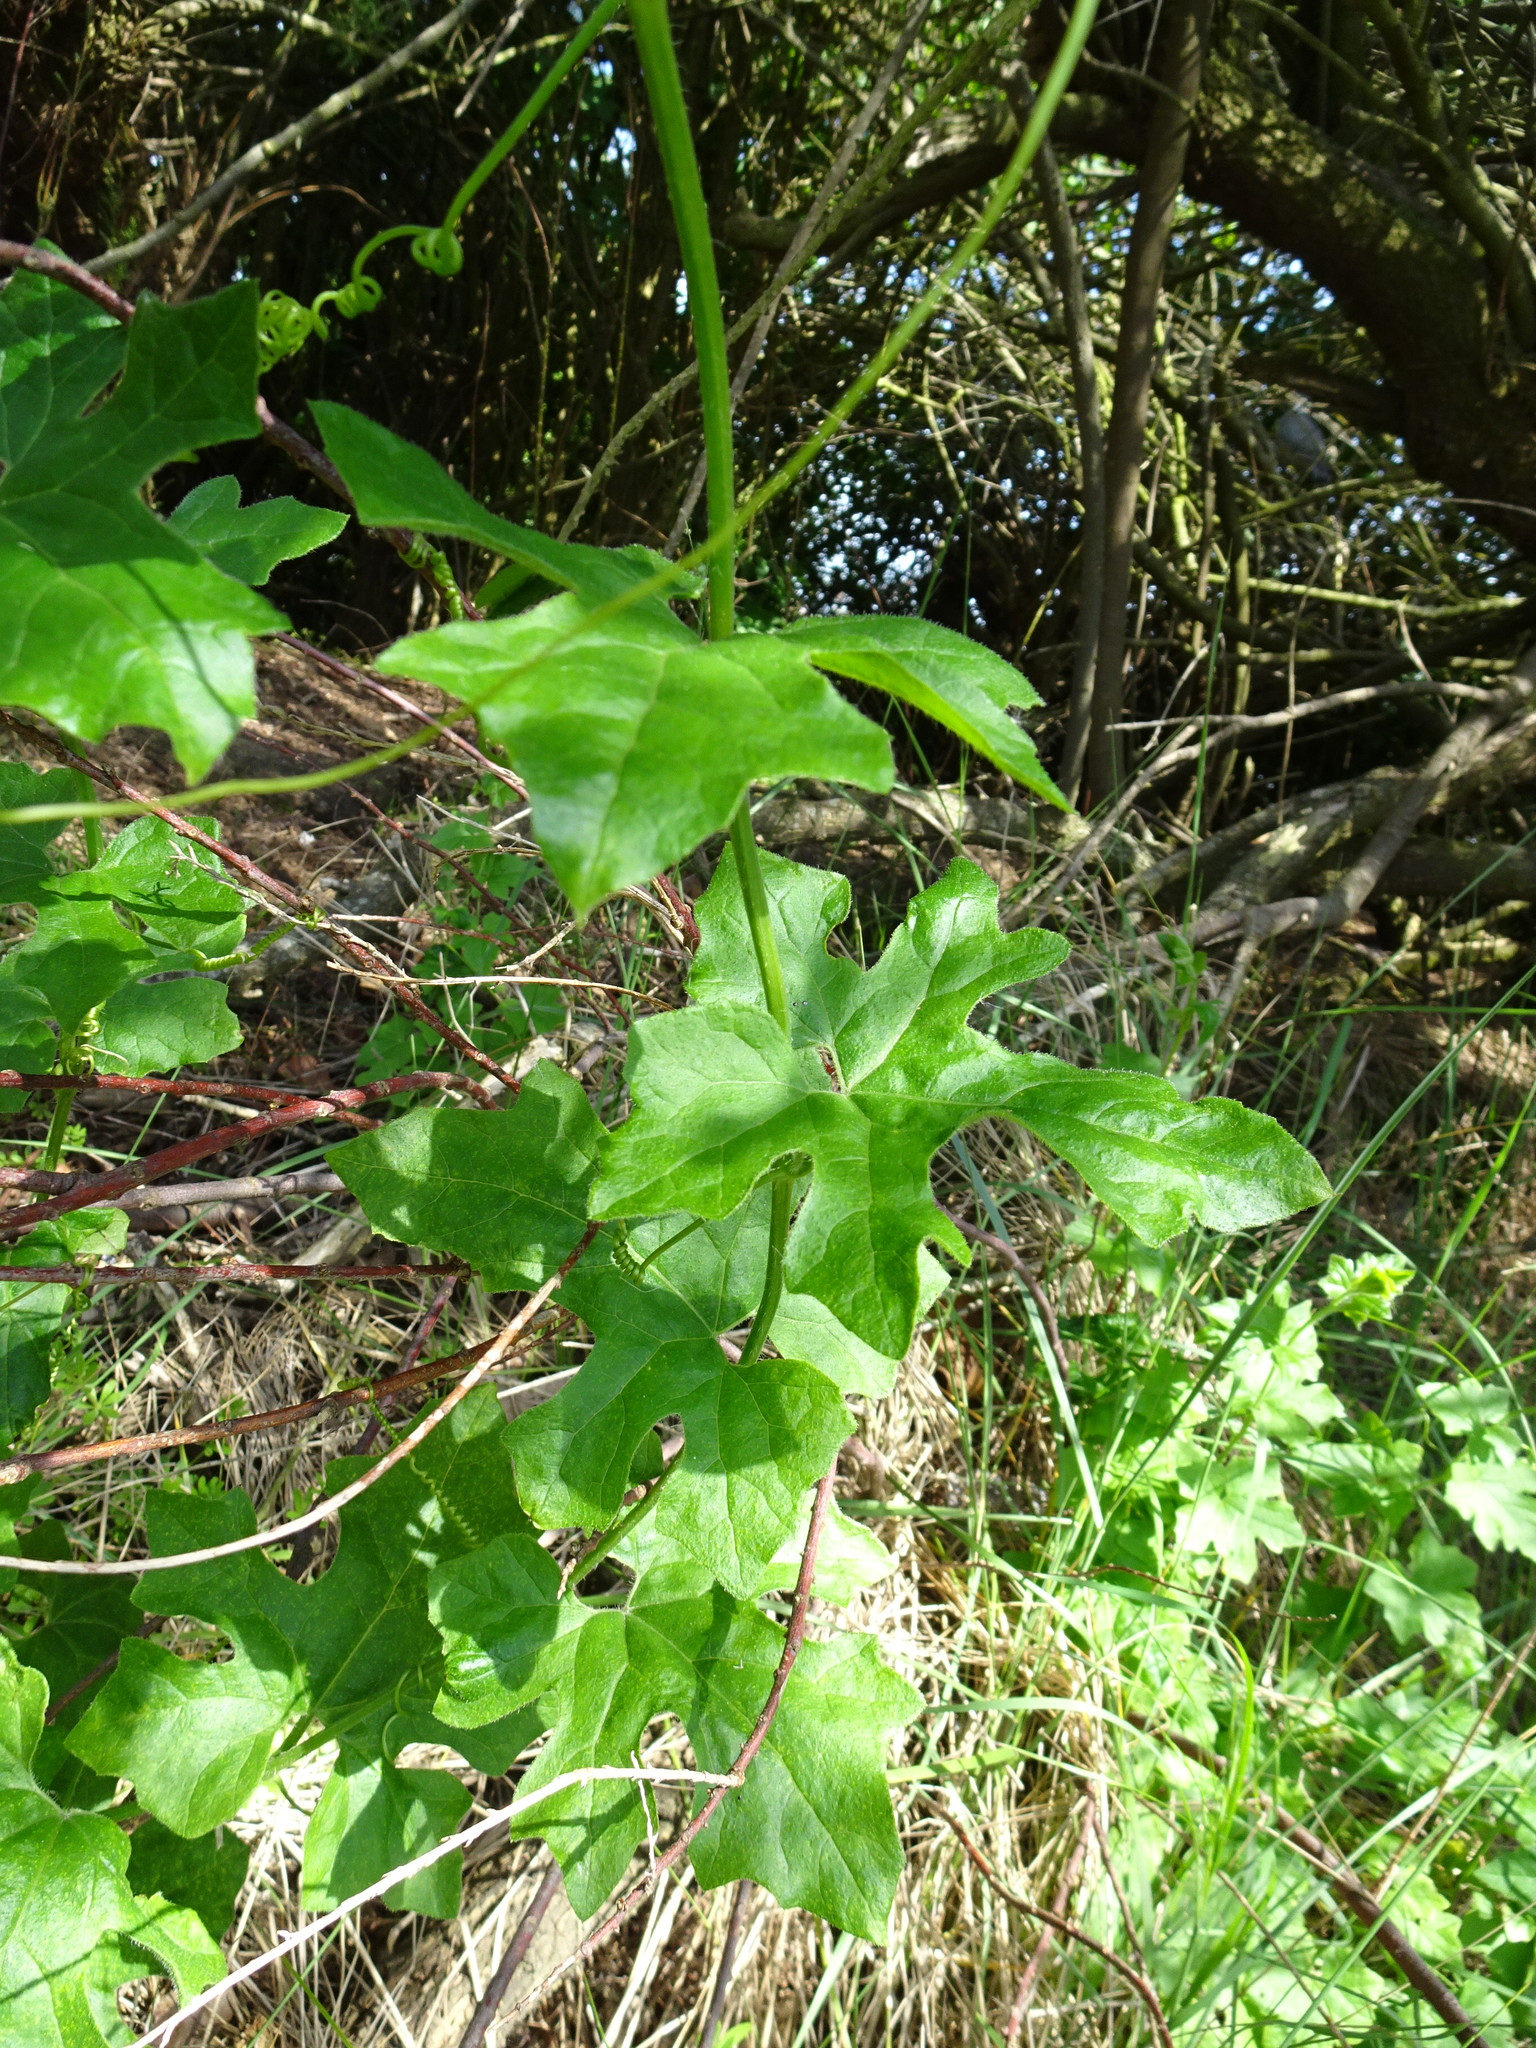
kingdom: Plantae
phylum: Tracheophyta
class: Magnoliopsida
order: Cucurbitales
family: Cucurbitaceae
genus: Bryonia
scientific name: Bryonia cretica
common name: Cretan bryony
